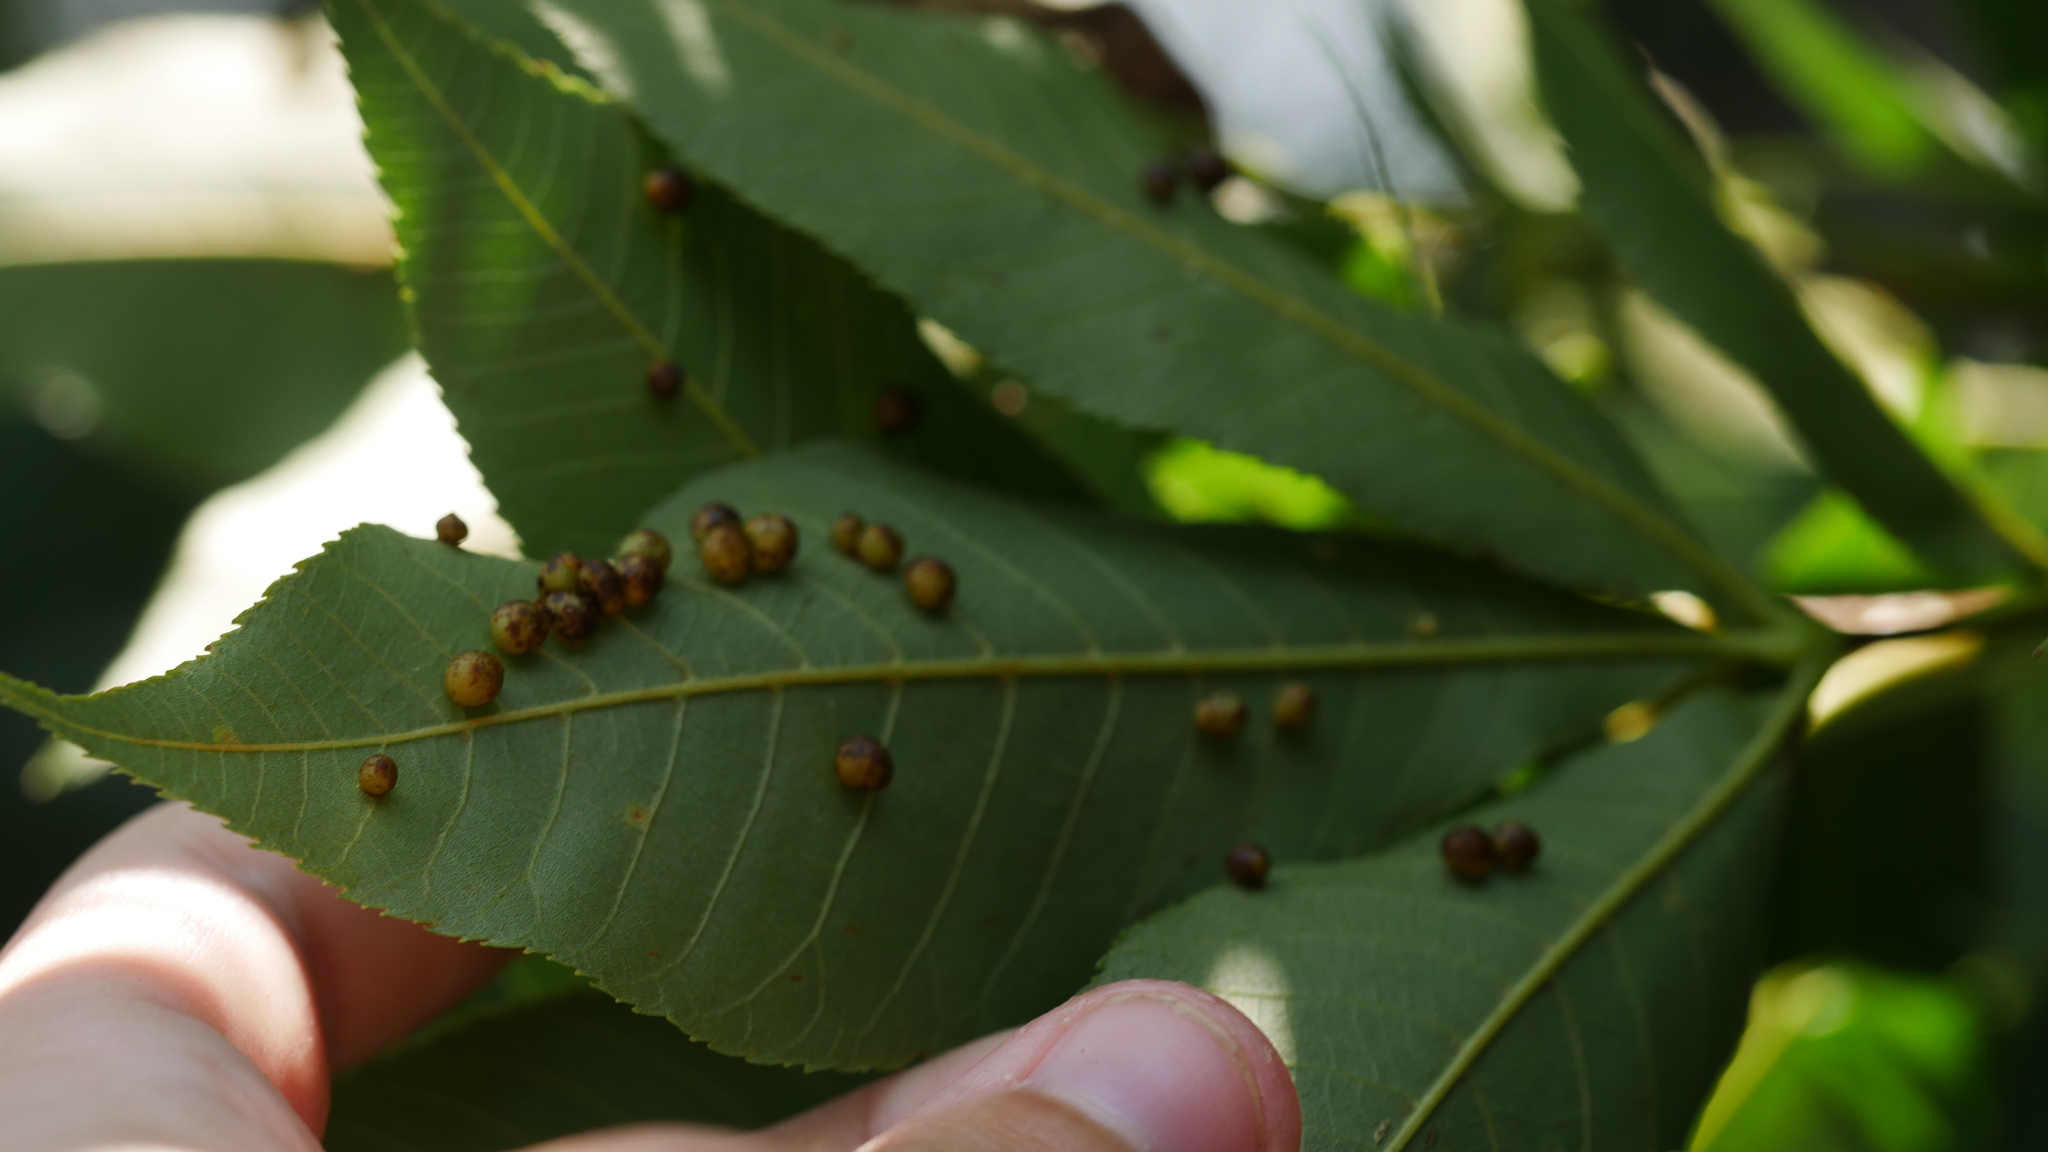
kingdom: Animalia
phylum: Arthropoda
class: Insecta
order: Diptera
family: Cecidomyiidae
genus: Caryomyia
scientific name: Caryomyia caryae
